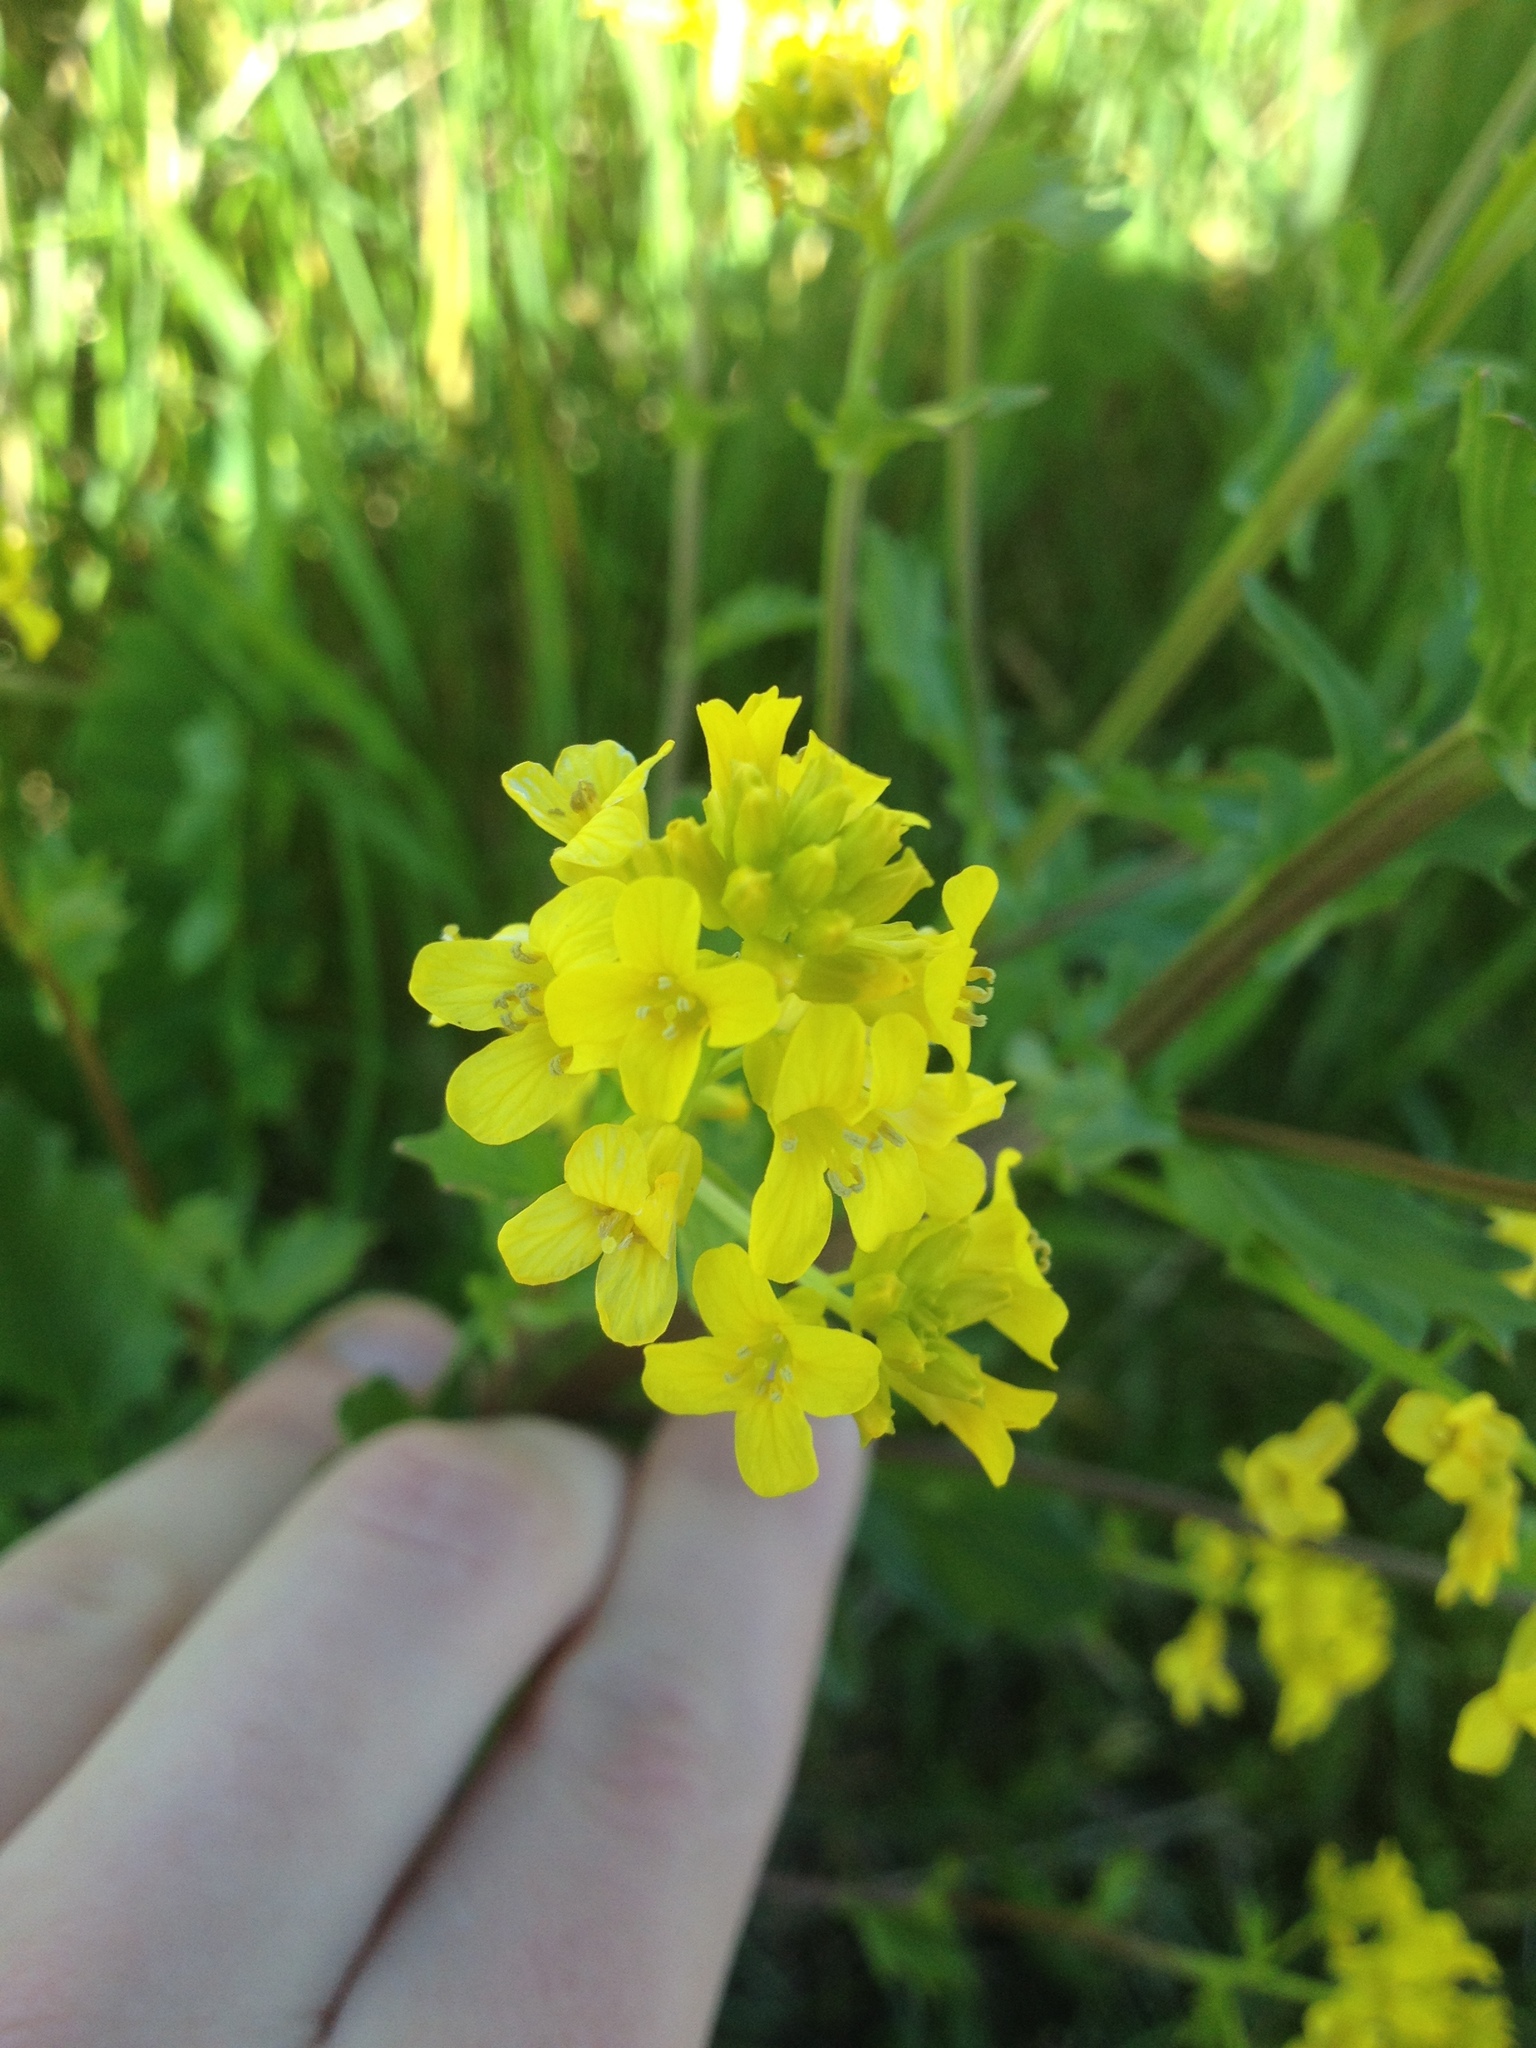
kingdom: Plantae
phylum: Tracheophyta
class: Magnoliopsida
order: Brassicales
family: Brassicaceae
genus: Barbarea
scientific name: Barbarea vulgaris
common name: Cressy-greens
